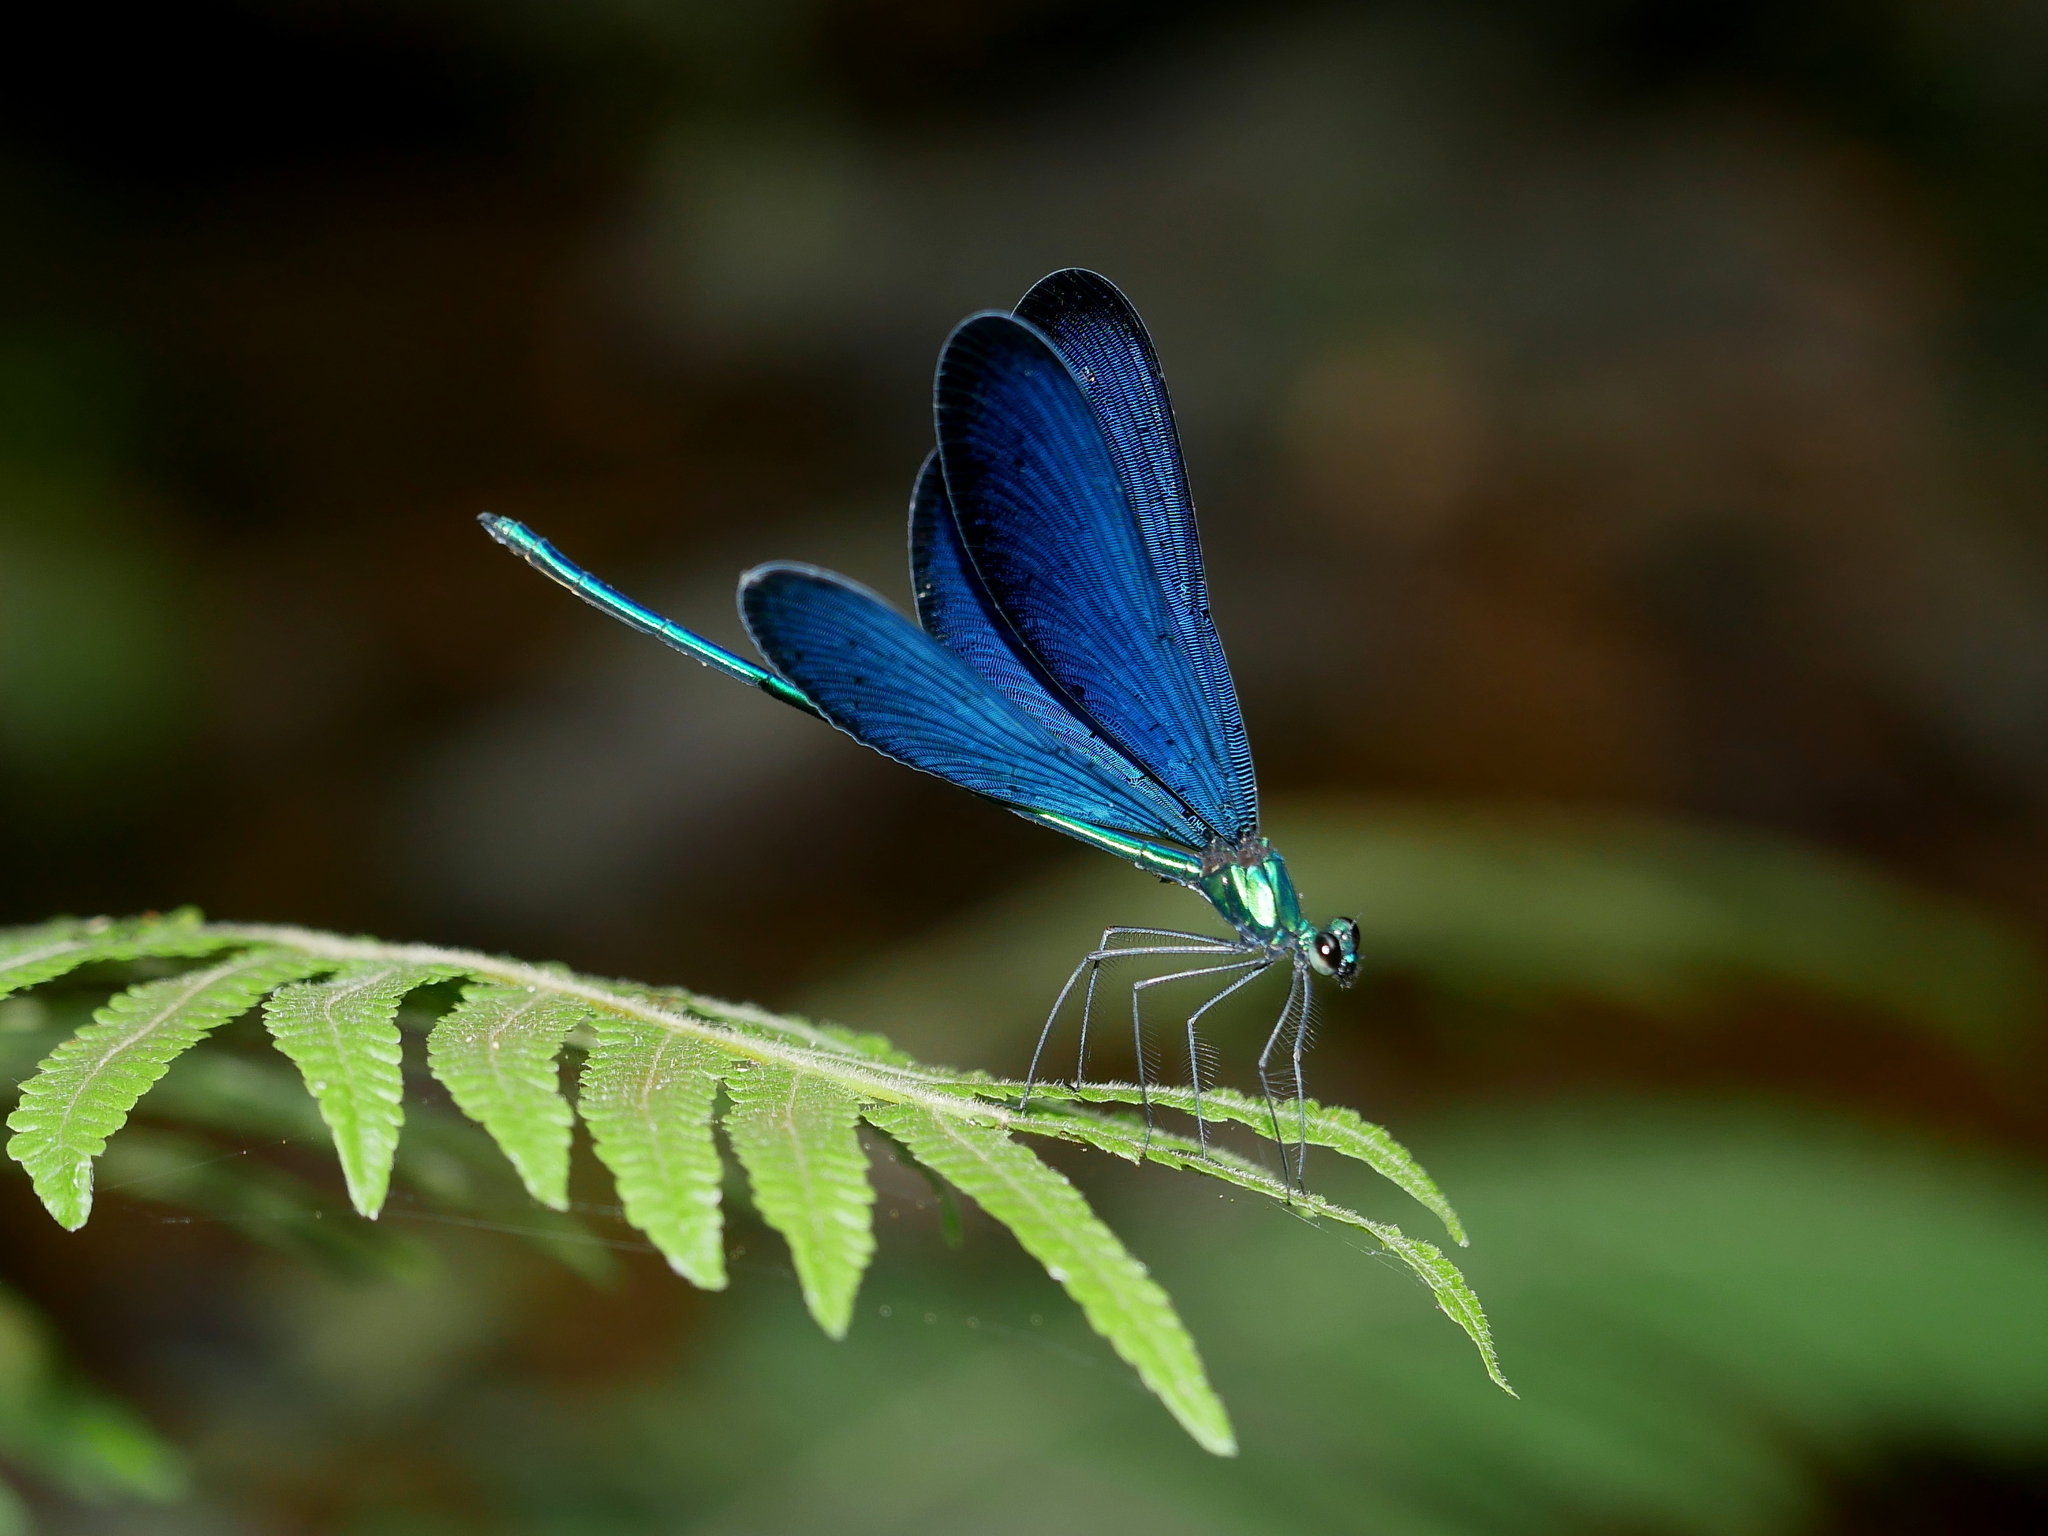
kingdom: Animalia
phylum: Arthropoda
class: Insecta
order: Odonata
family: Calopterygidae
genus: Matrona
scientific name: Matrona cyanoptera
